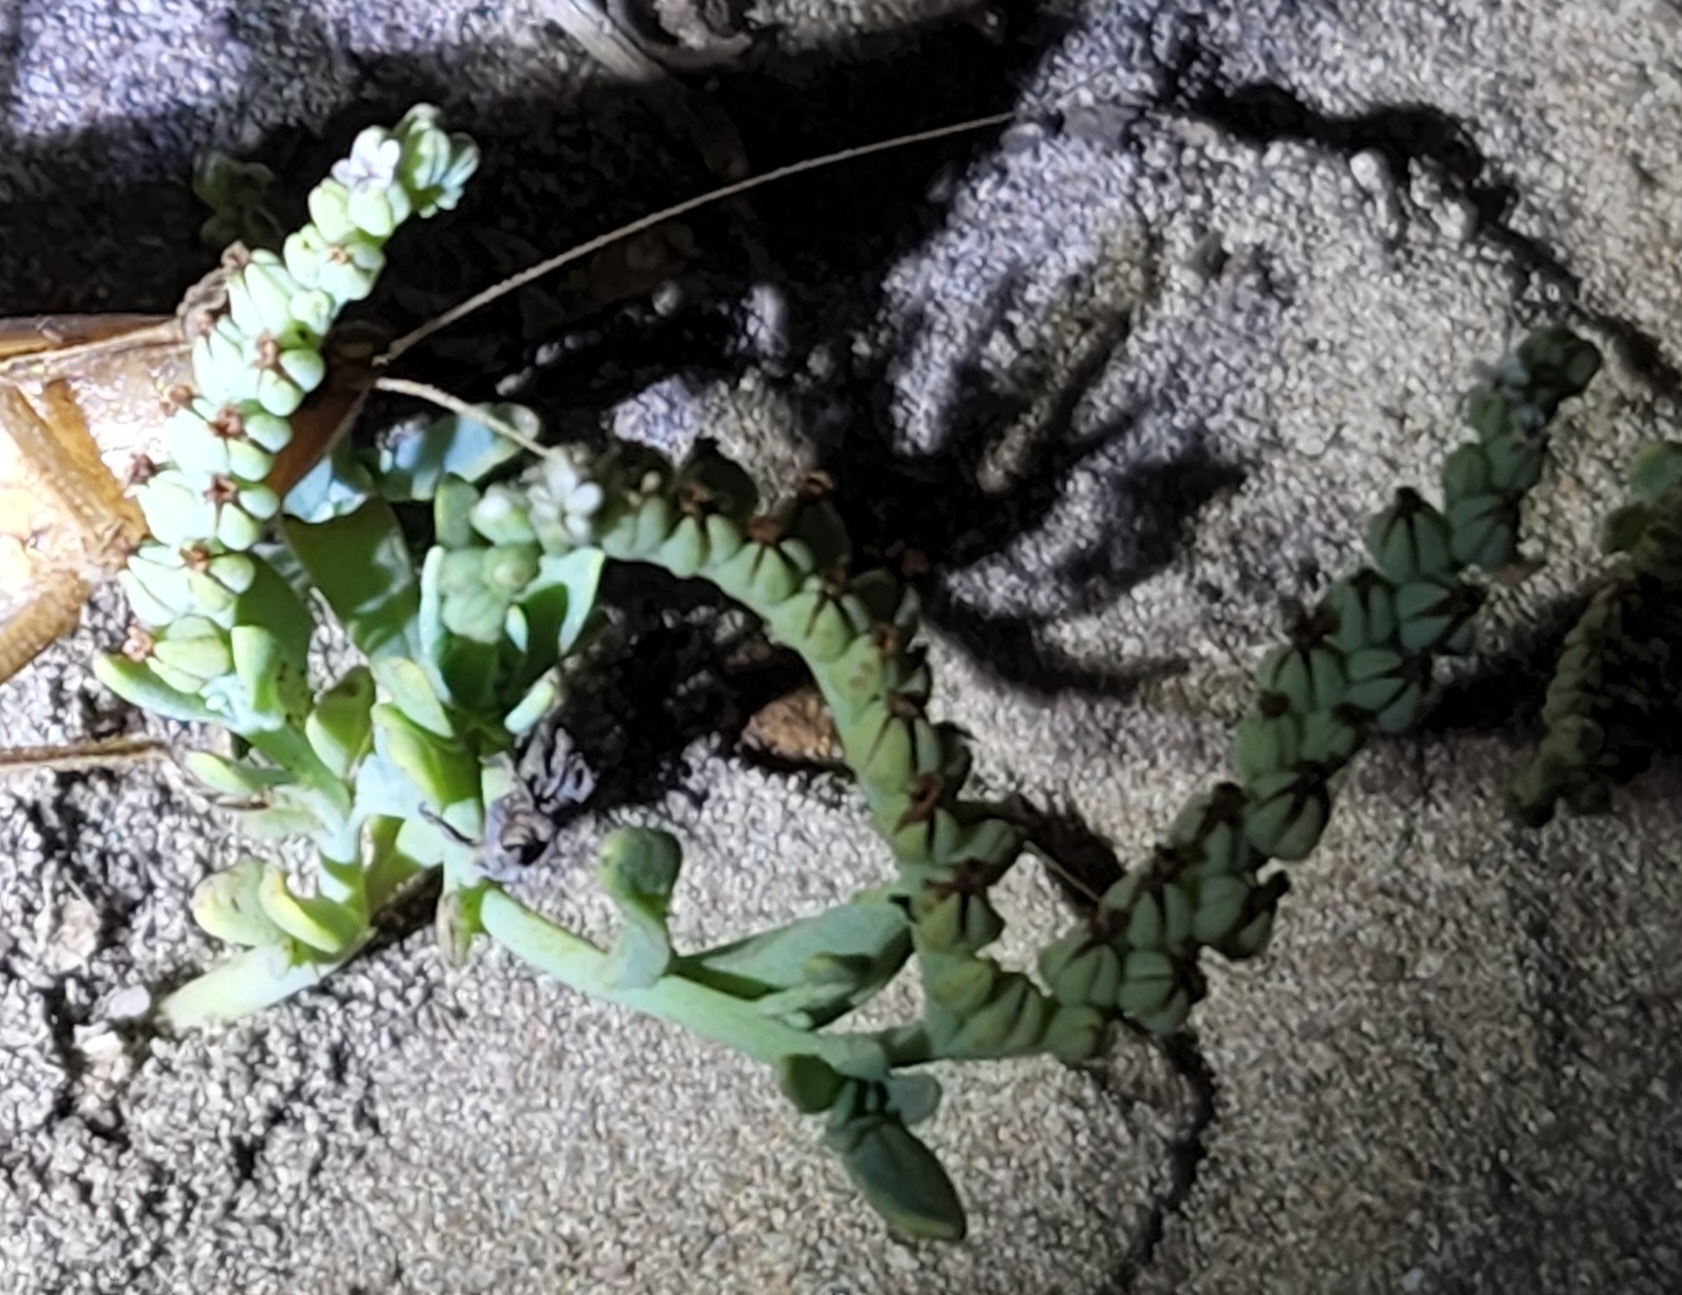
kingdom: Plantae
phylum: Tracheophyta
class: Magnoliopsida
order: Boraginales
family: Heliotropiaceae
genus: Heliotropium
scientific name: Heliotropium curassavicum
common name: Seaside heliotrope
